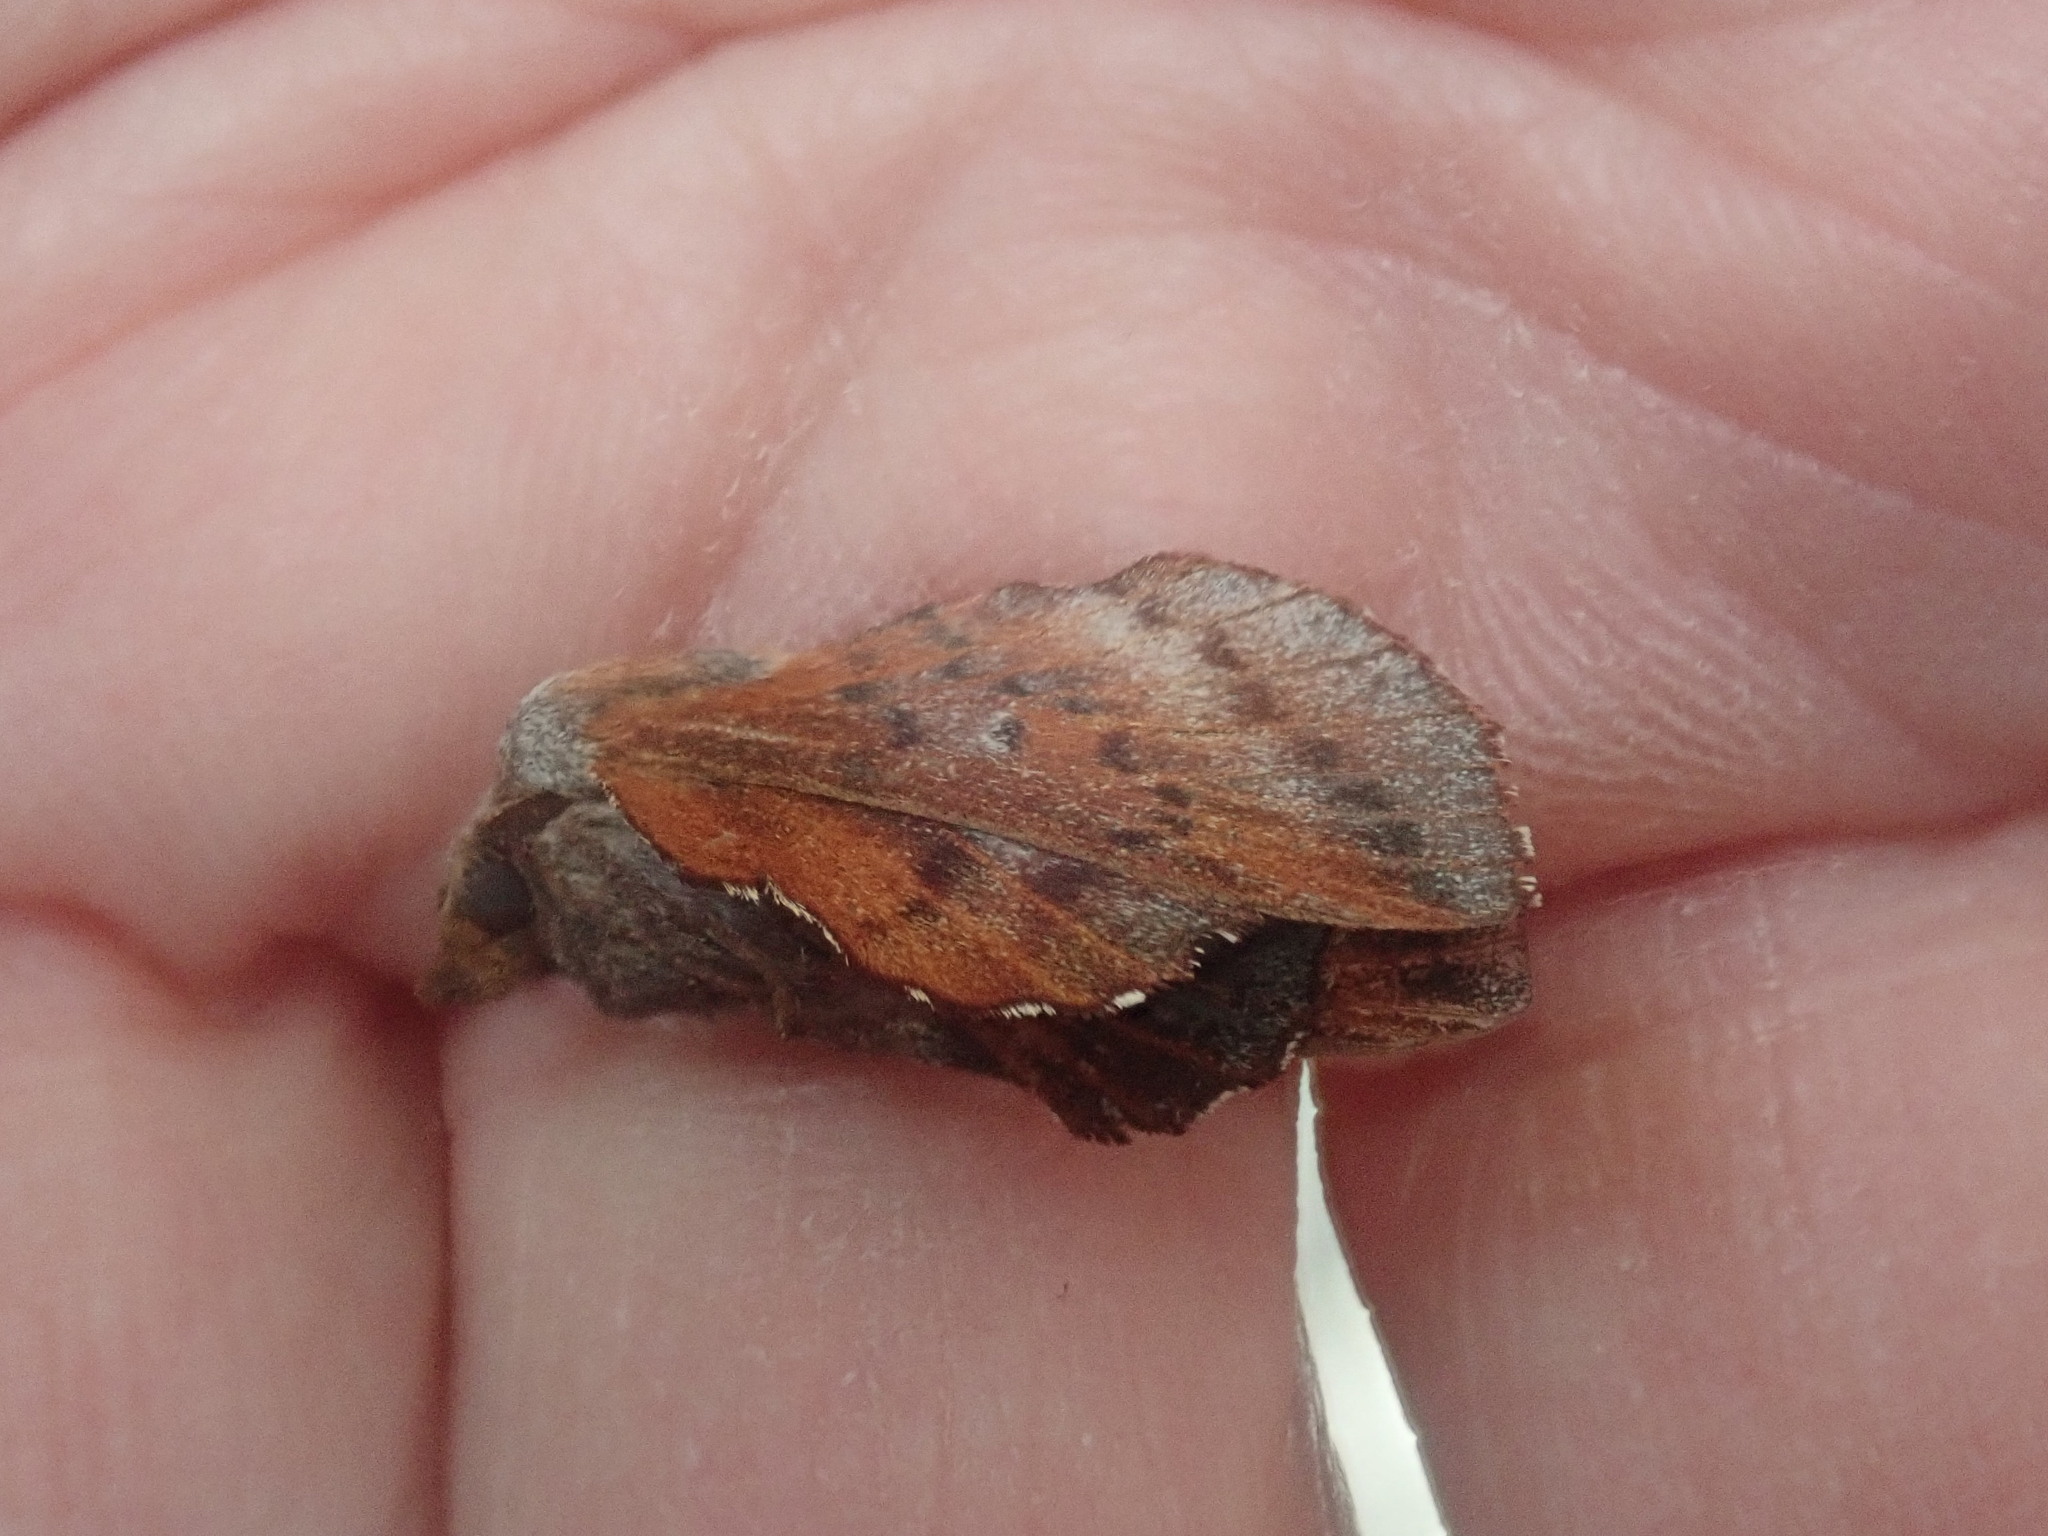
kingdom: Animalia
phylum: Arthropoda
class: Insecta
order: Lepidoptera
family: Lasiocampidae
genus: Phyllodesma
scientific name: Phyllodesma americana
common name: American lappet moth
